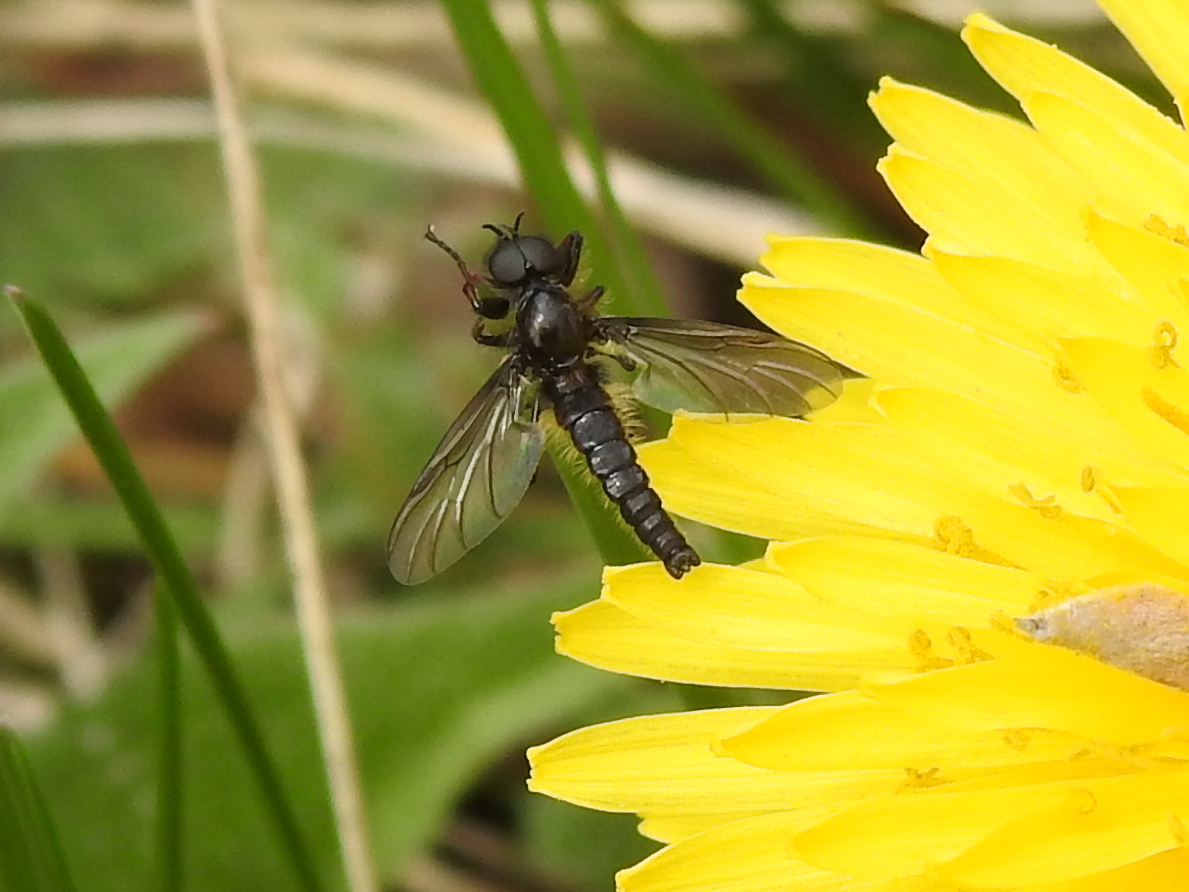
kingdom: Animalia
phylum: Arthropoda
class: Insecta
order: Diptera
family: Bibionidae
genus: Bibio
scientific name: Bibio lanigerus
